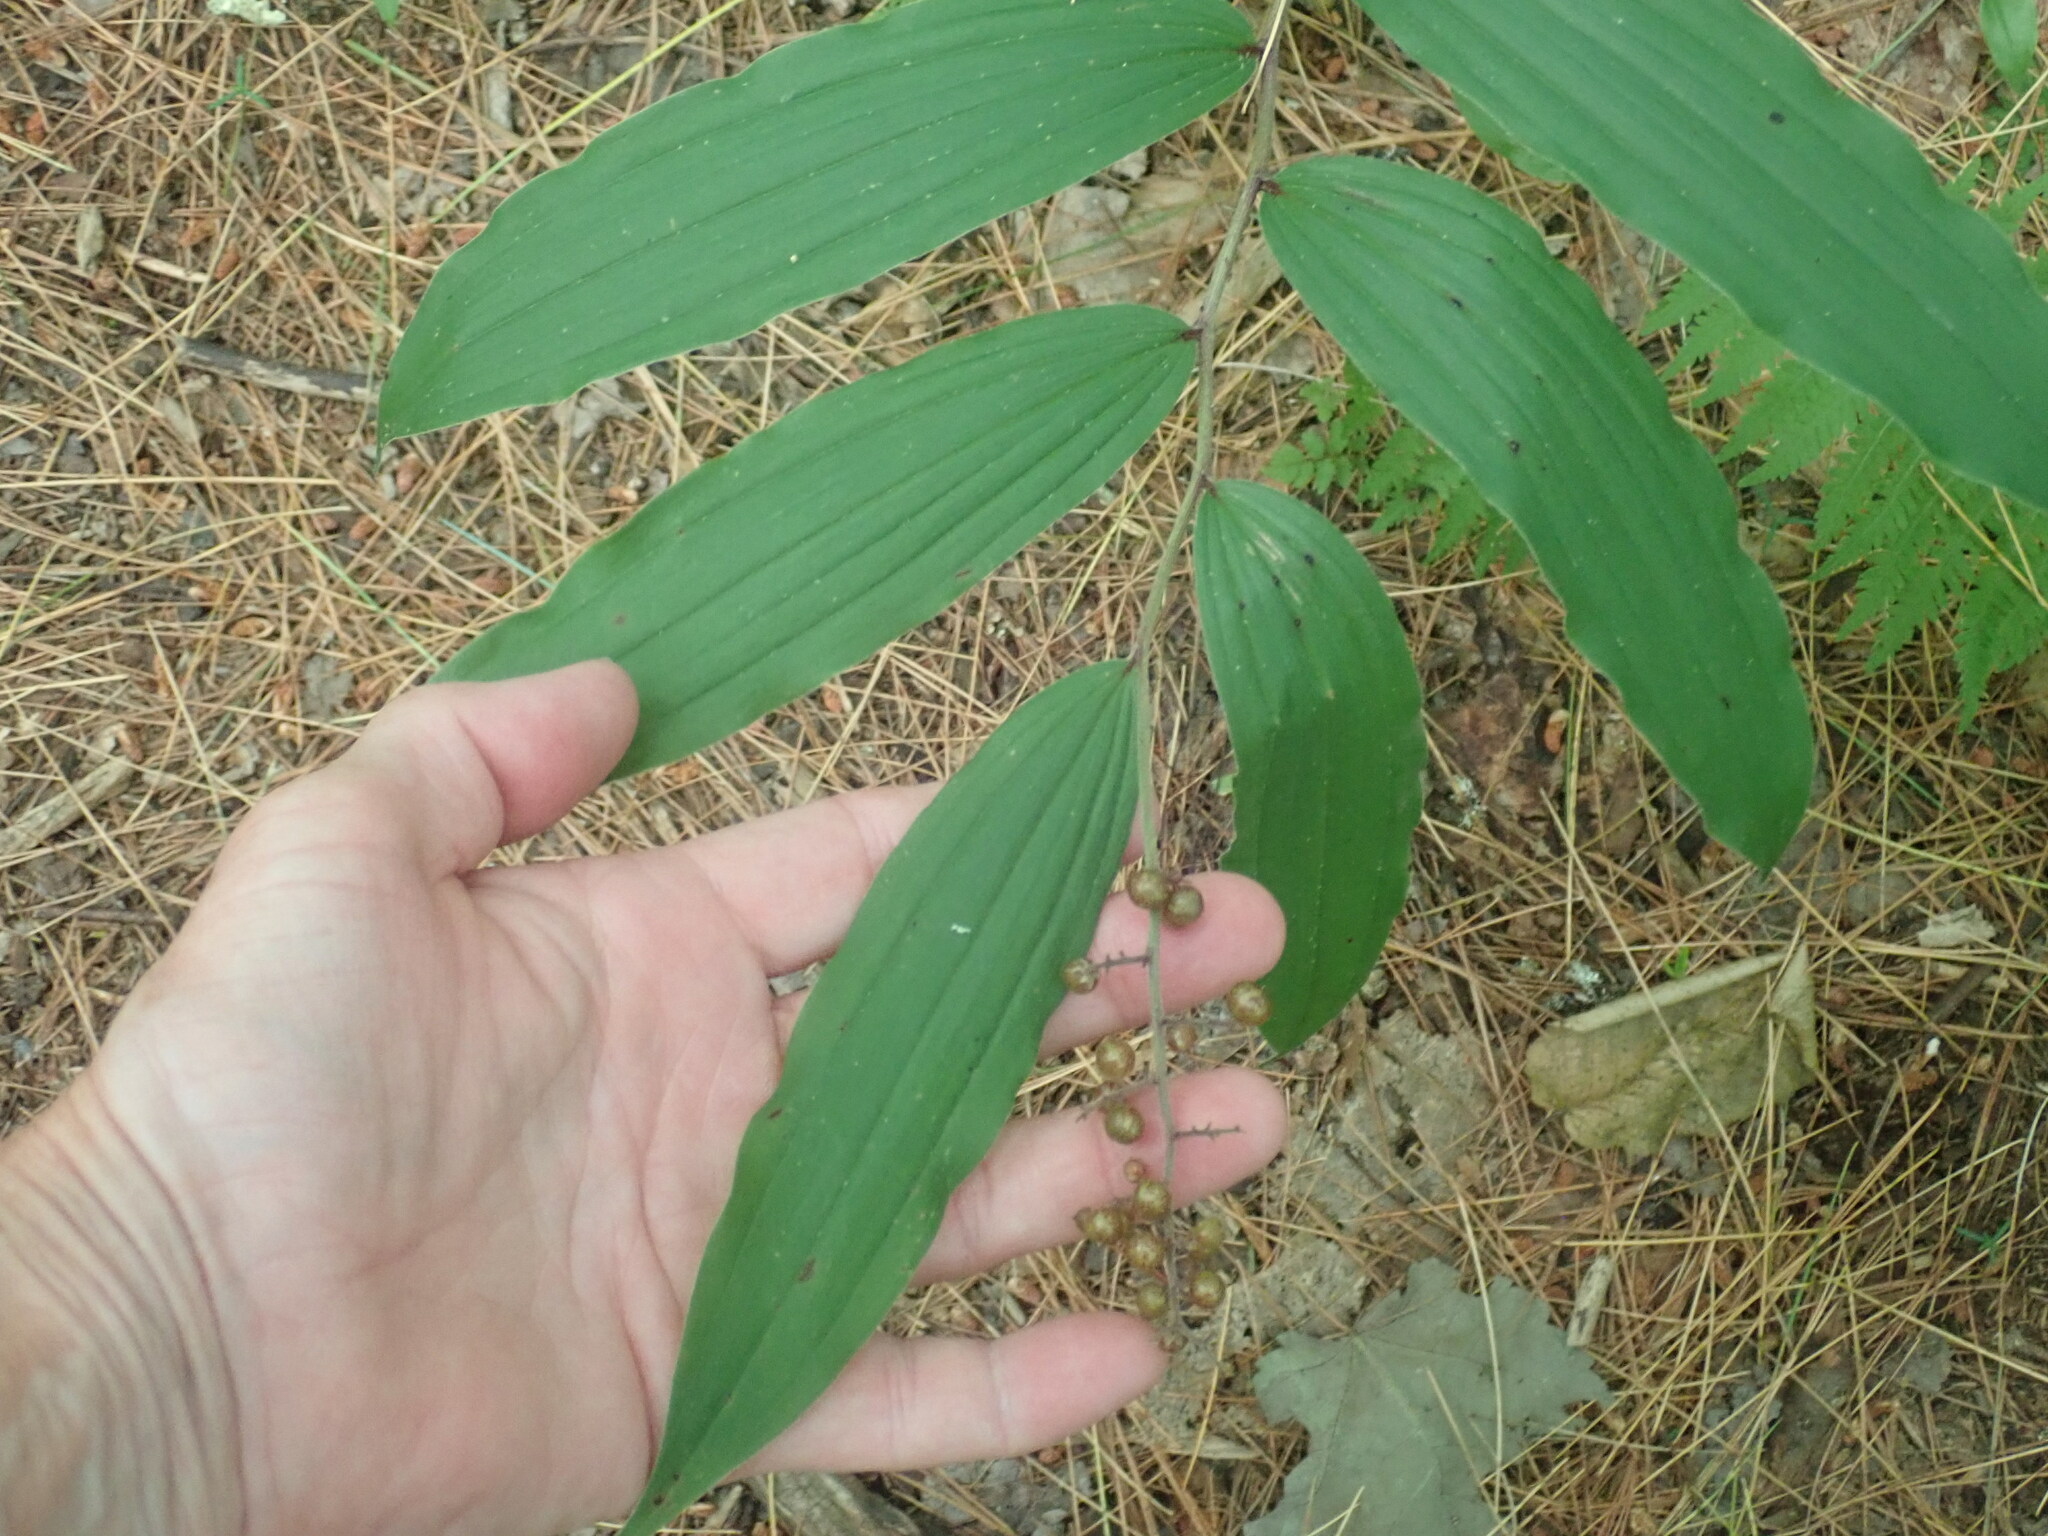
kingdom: Plantae
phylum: Tracheophyta
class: Liliopsida
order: Asparagales
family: Asparagaceae
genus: Maianthemum
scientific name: Maianthemum racemosum
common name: False spikenard
